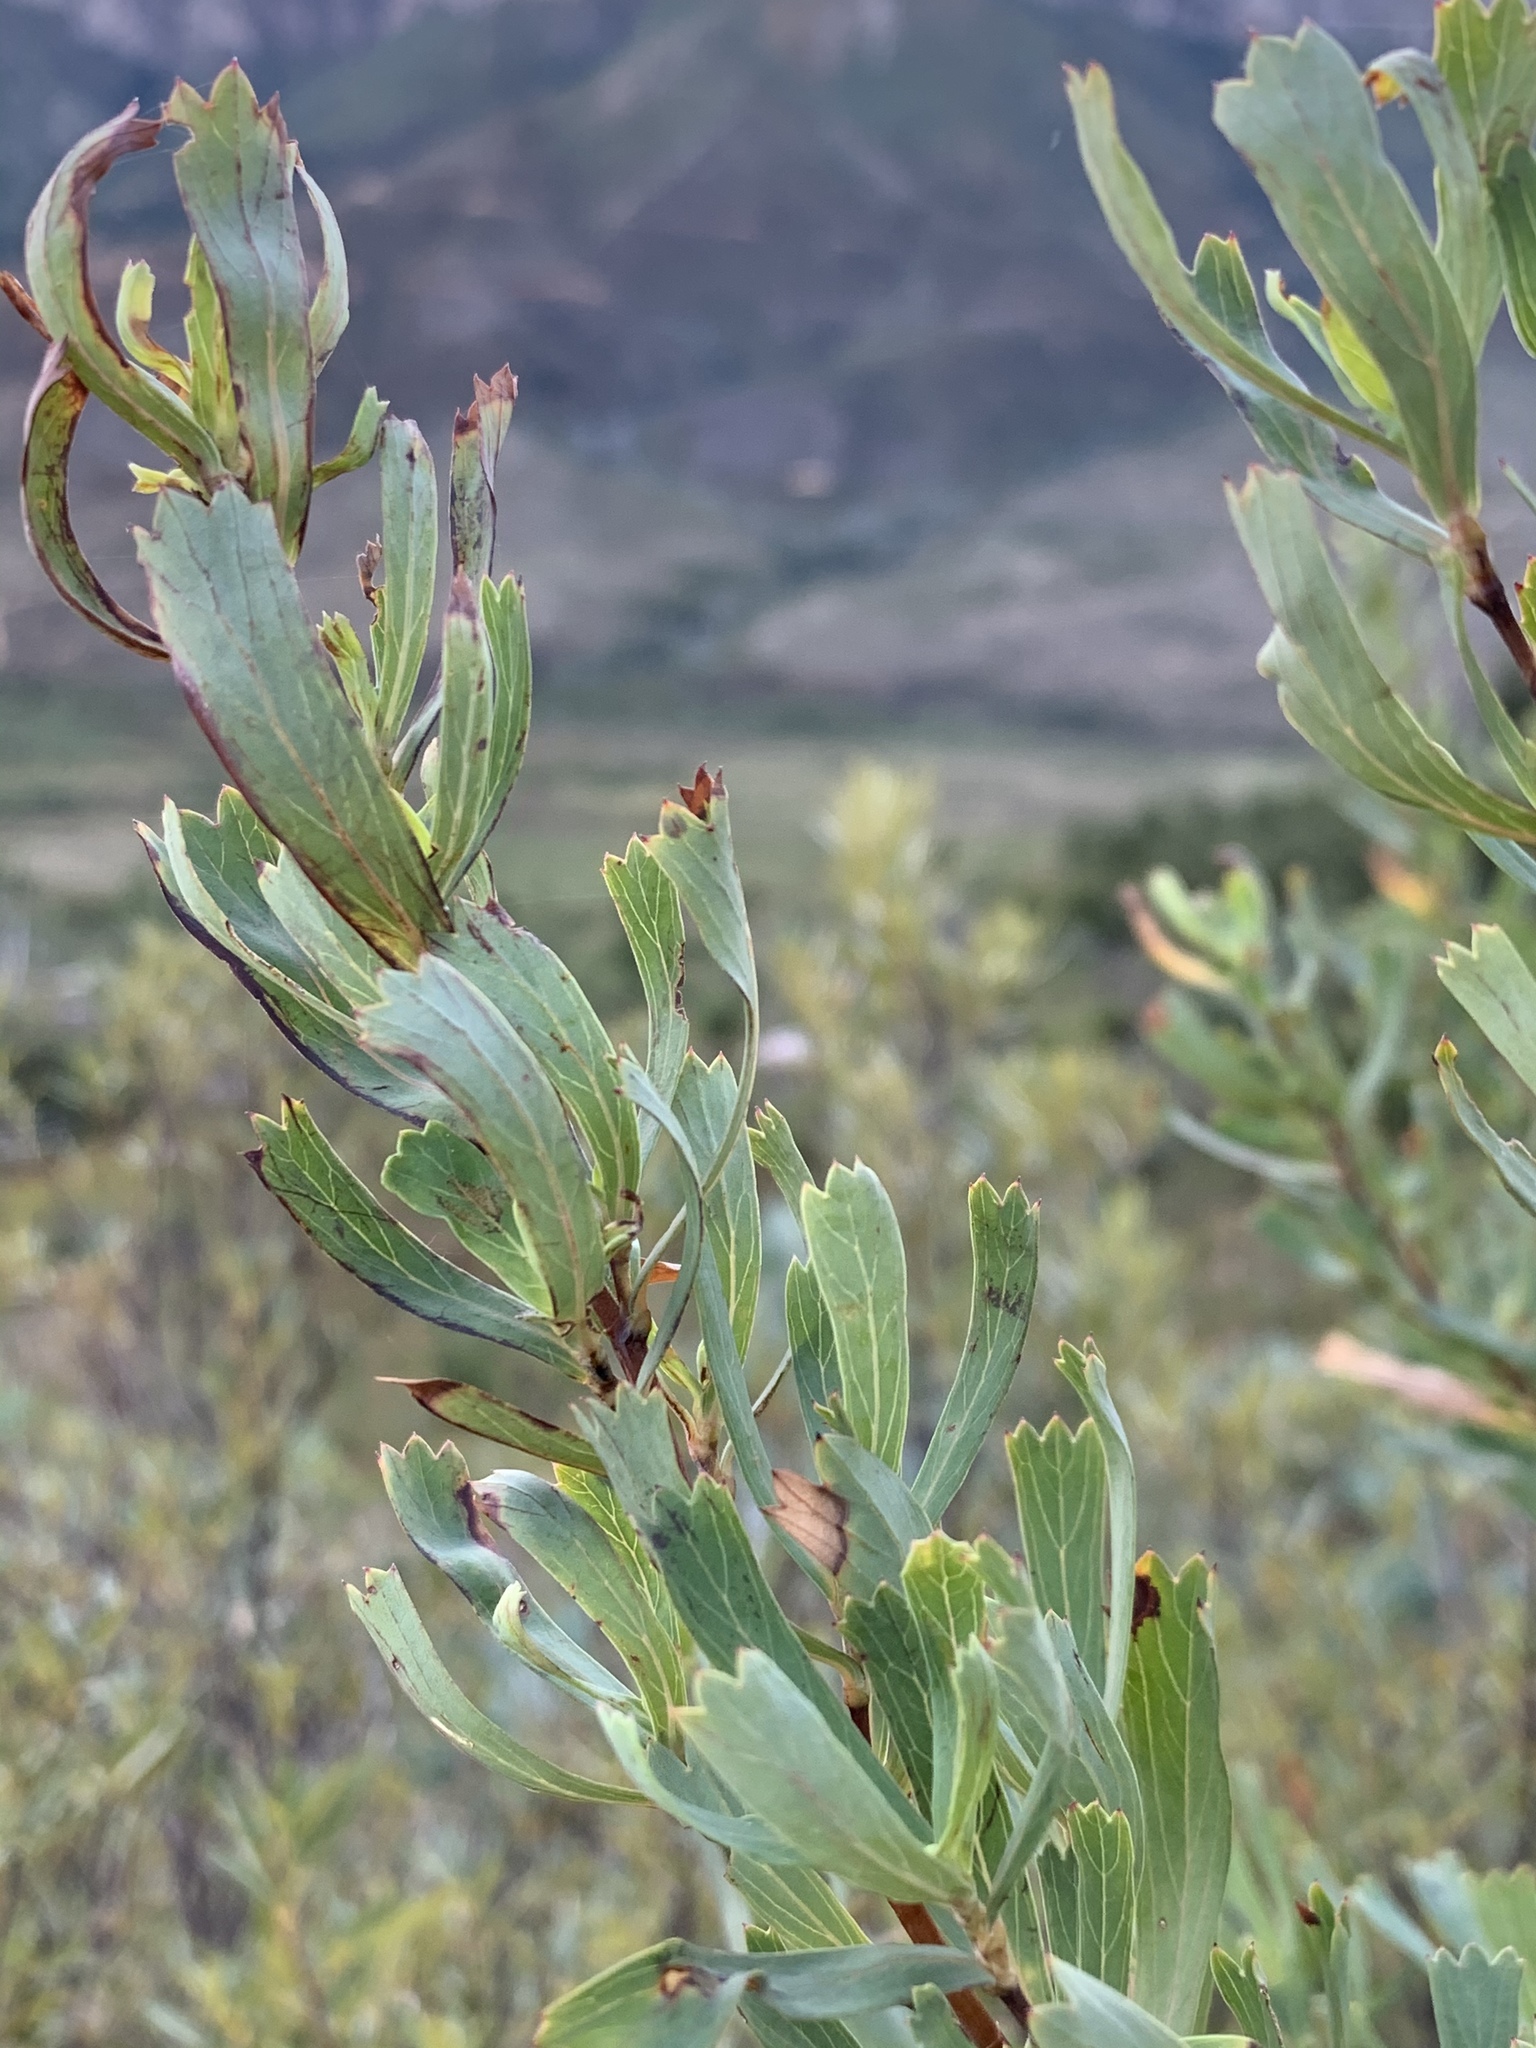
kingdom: Plantae
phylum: Tracheophyta
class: Magnoliopsida
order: Rosales
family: Rosaceae
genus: Cliffortia
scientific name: Cliffortia cuneata
